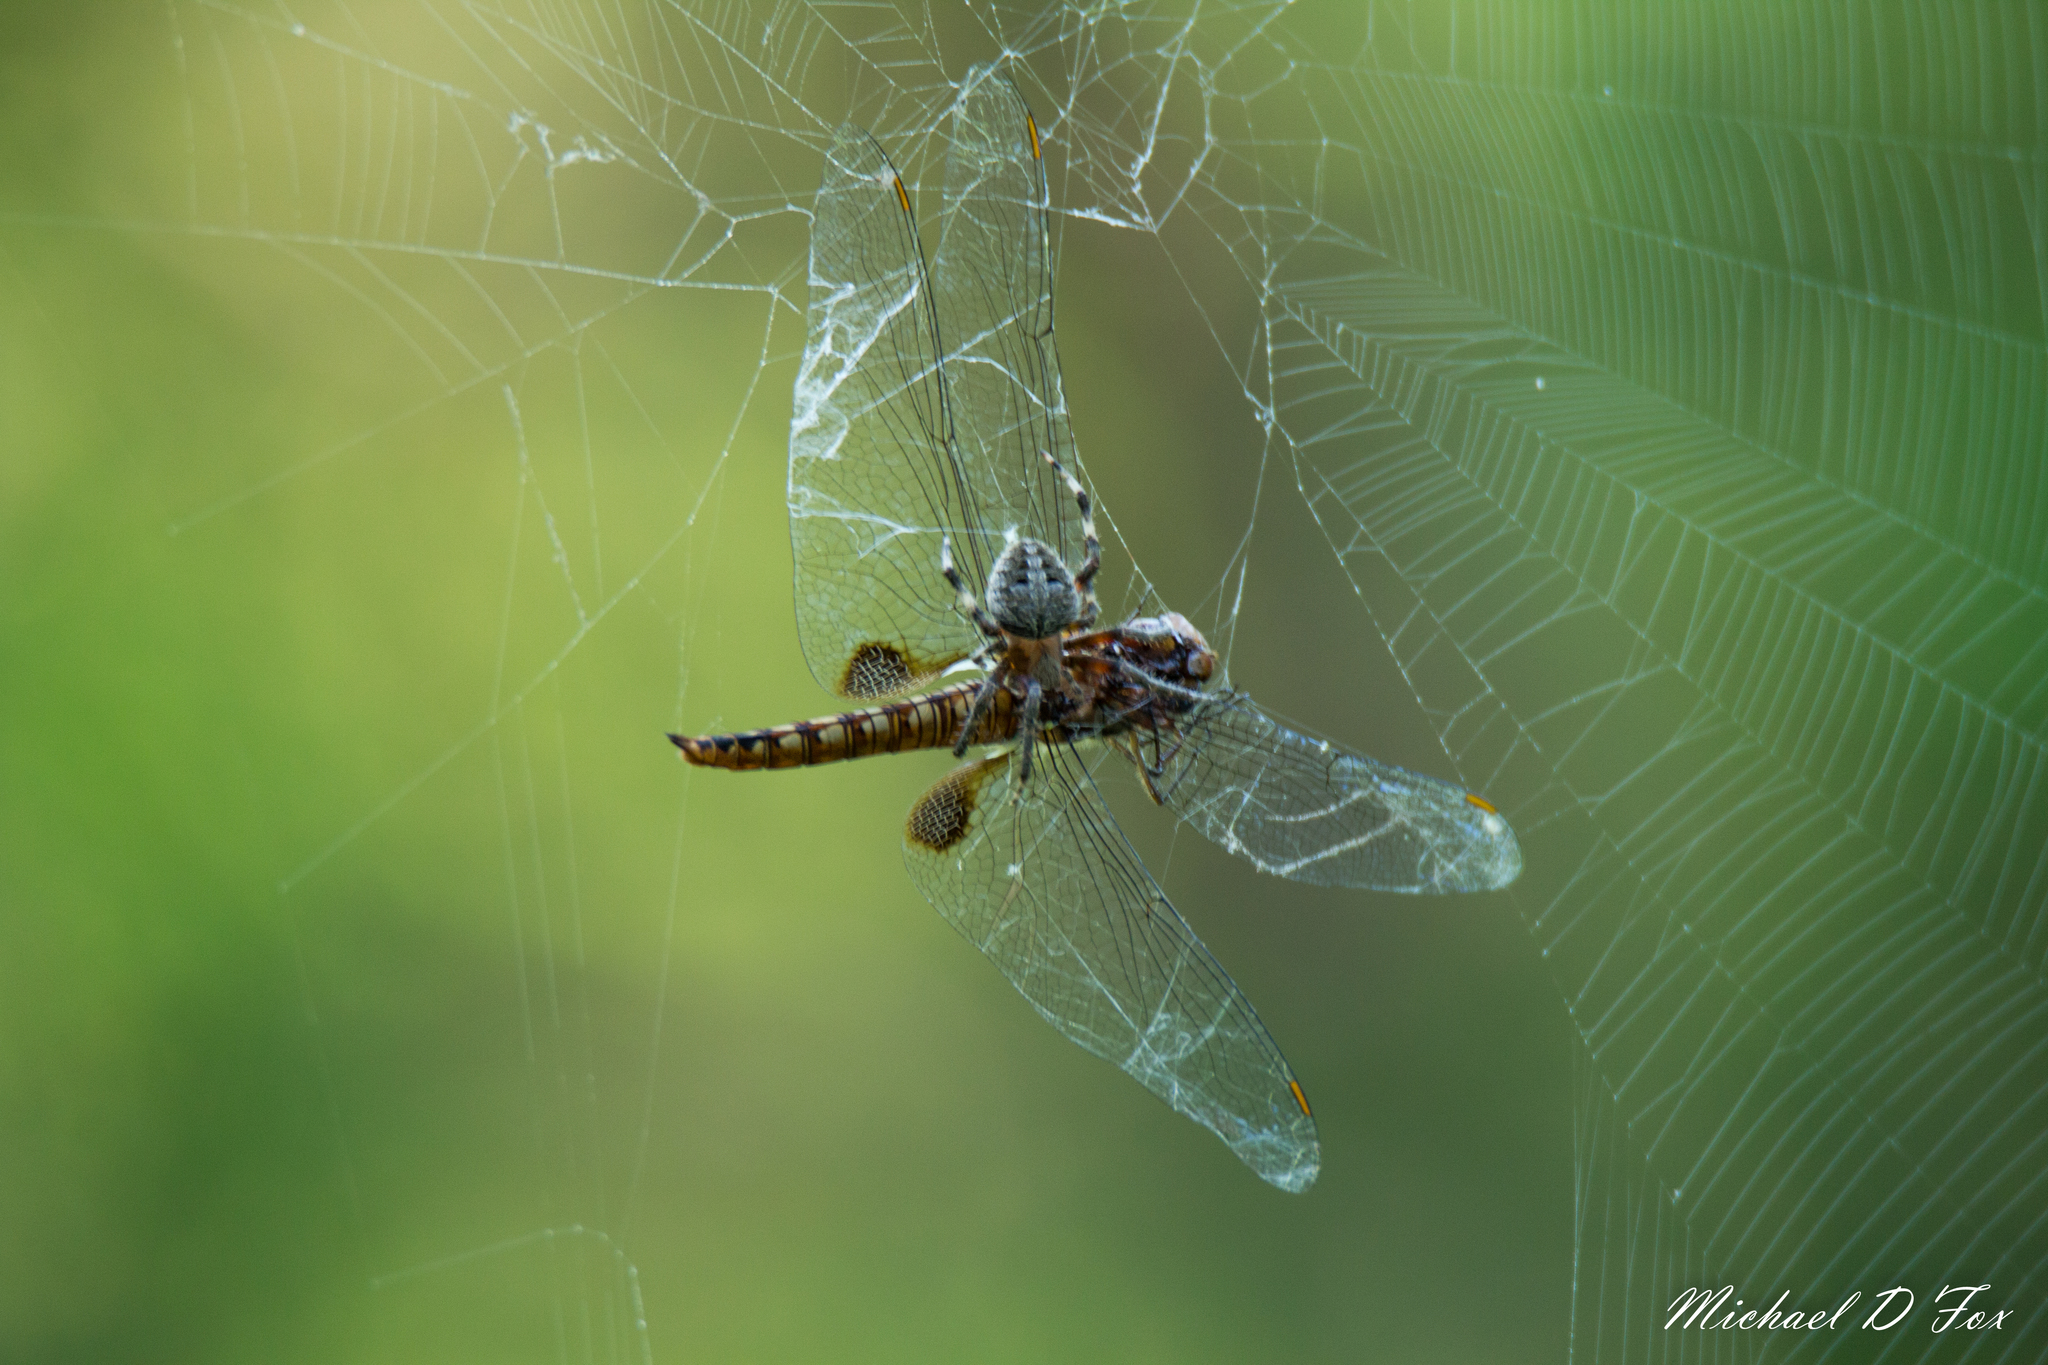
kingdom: Animalia
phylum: Arthropoda
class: Insecta
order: Odonata
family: Libellulidae
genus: Pantala
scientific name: Pantala hymenaea
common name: Spot-winged glider
